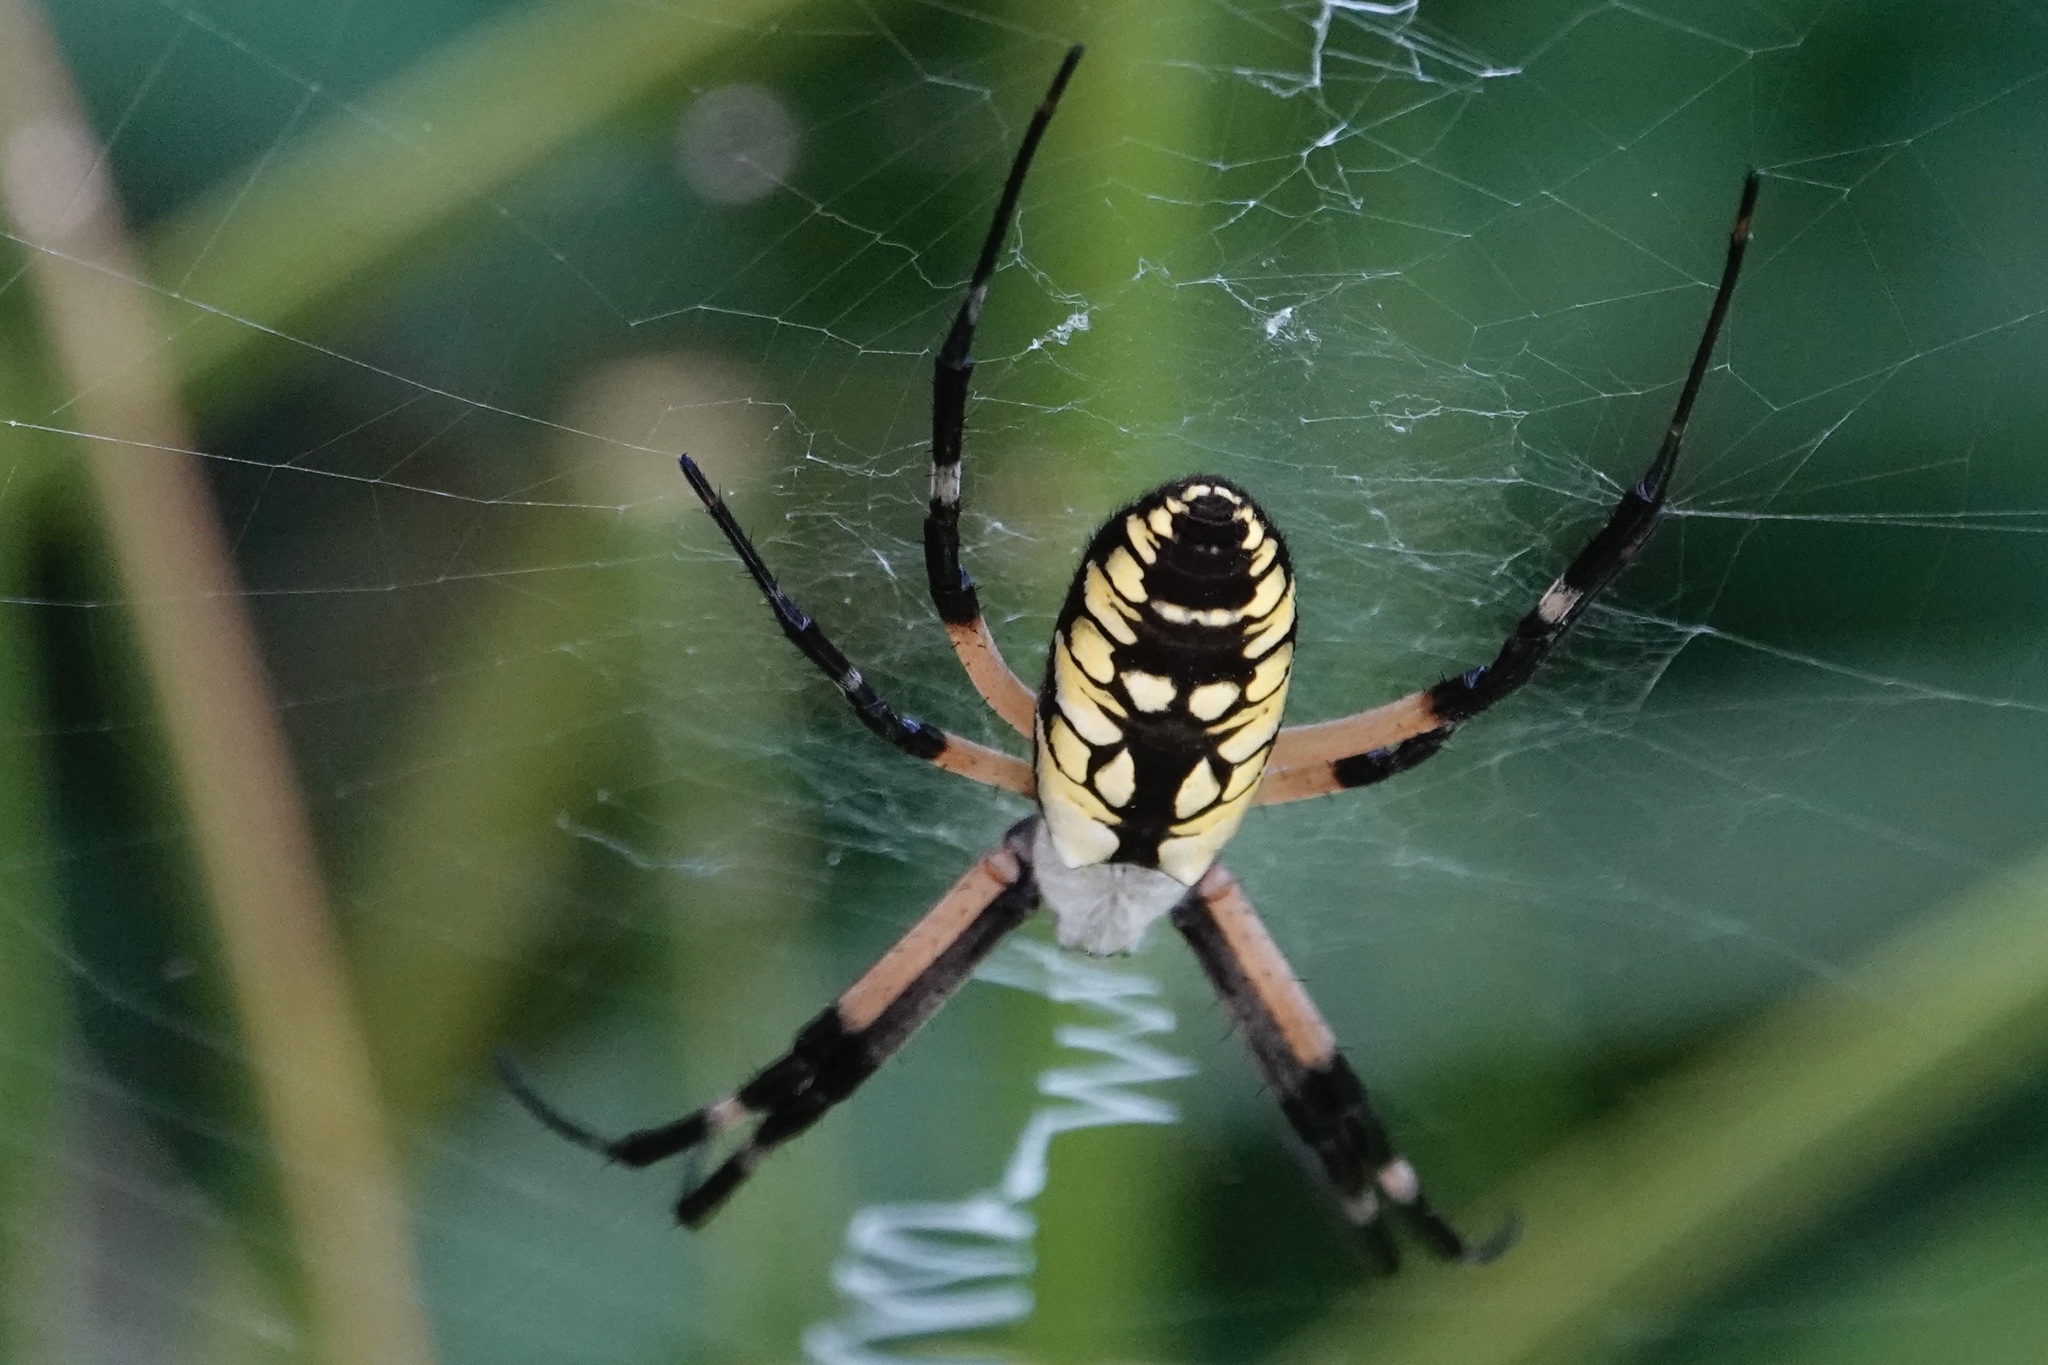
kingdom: Animalia
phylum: Arthropoda
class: Arachnida
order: Araneae
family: Araneidae
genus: Argiope
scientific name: Argiope aurantia
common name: Orb weavers
